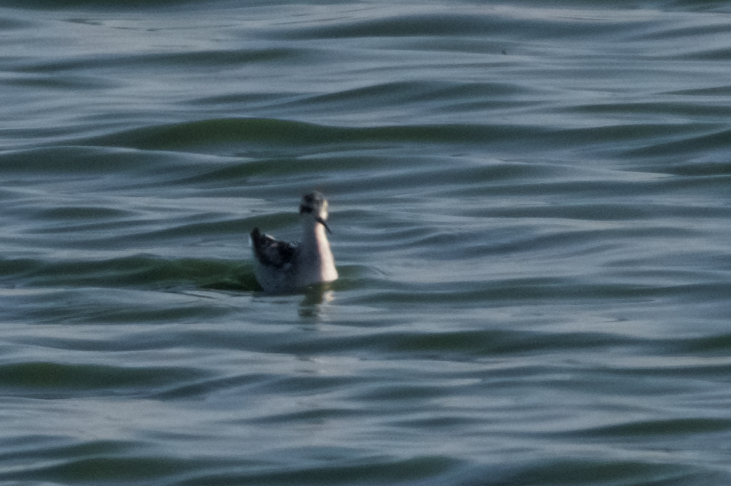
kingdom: Animalia
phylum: Chordata
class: Aves
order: Charadriiformes
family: Scolopacidae
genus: Phalaropus
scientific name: Phalaropus lobatus
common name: Red-necked phalarope
